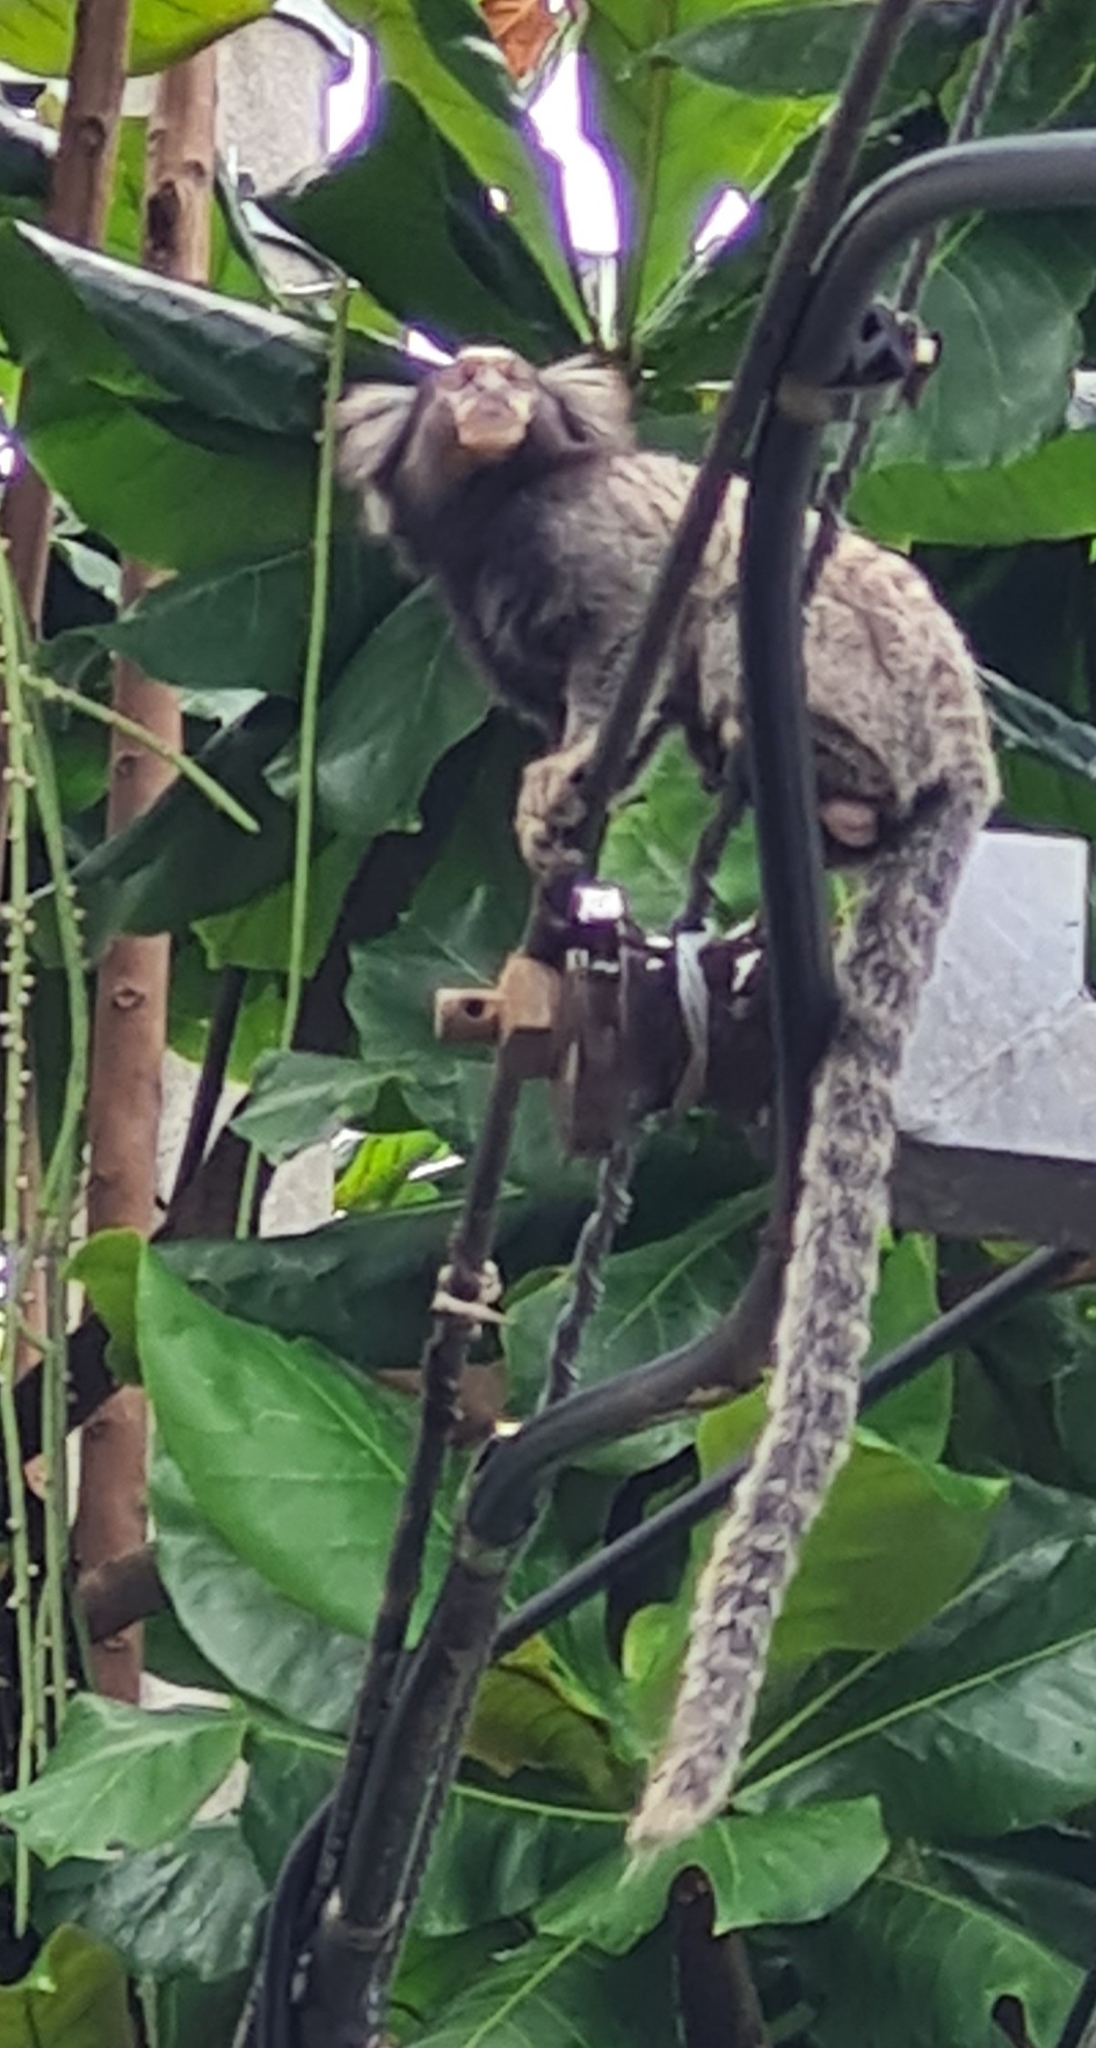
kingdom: Animalia
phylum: Chordata
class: Mammalia
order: Primates
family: Callitrichidae
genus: Callithrix
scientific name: Callithrix jacchus
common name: Common marmoset
